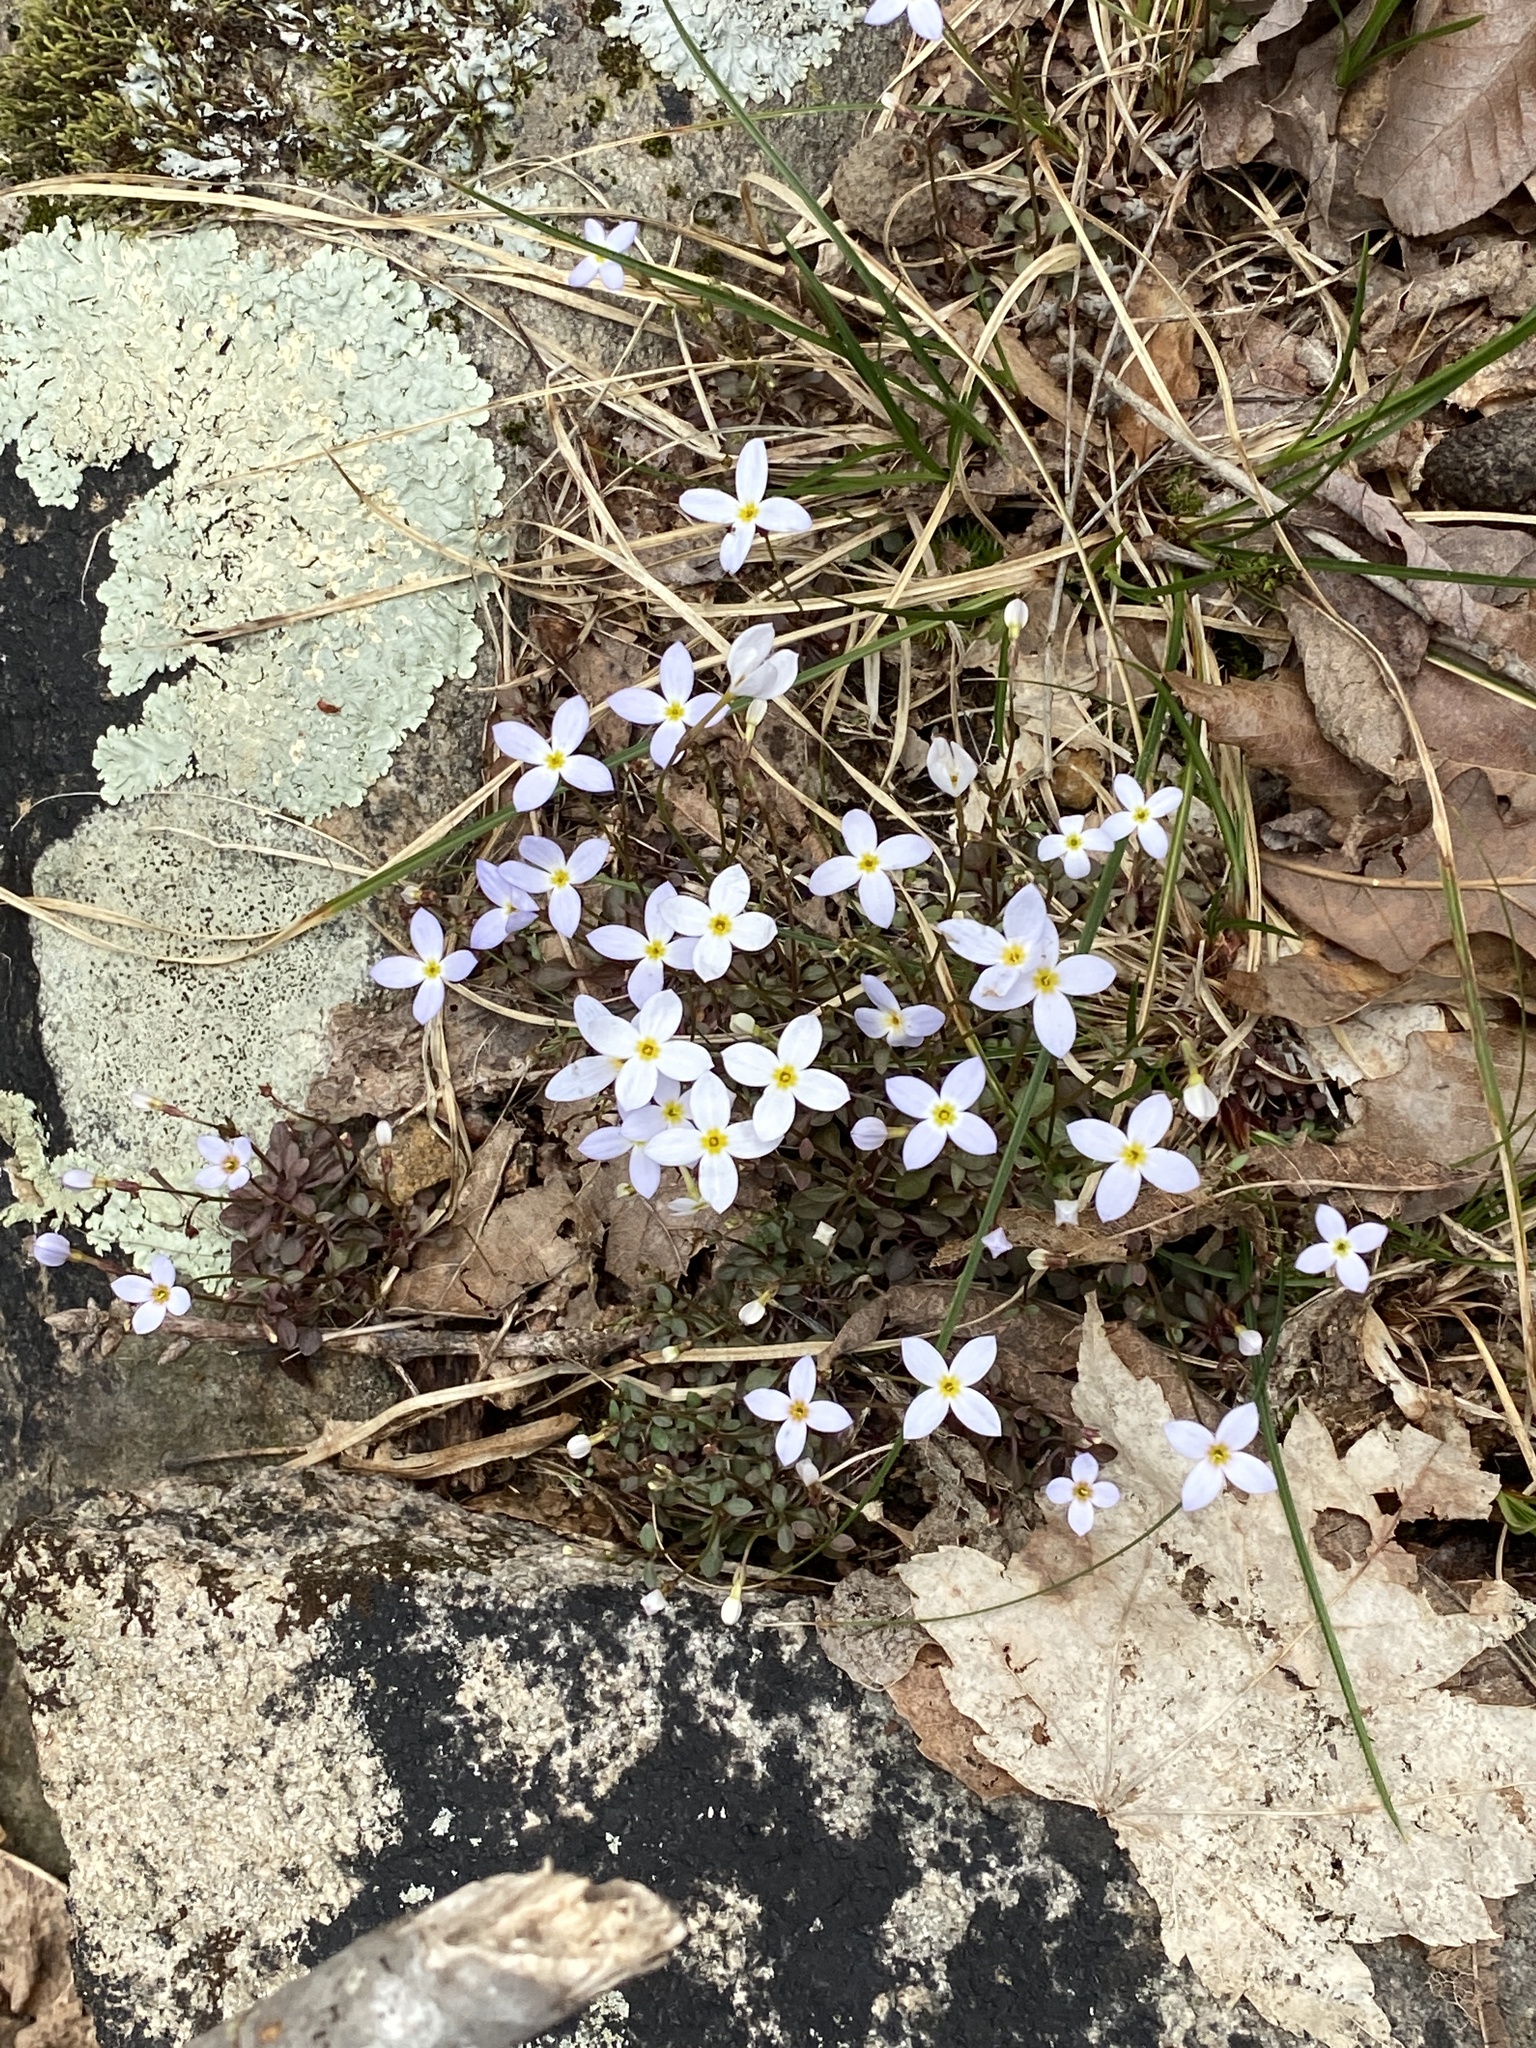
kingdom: Plantae
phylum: Tracheophyta
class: Magnoliopsida
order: Gentianales
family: Rubiaceae
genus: Houstonia
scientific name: Houstonia caerulea
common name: Bluets
